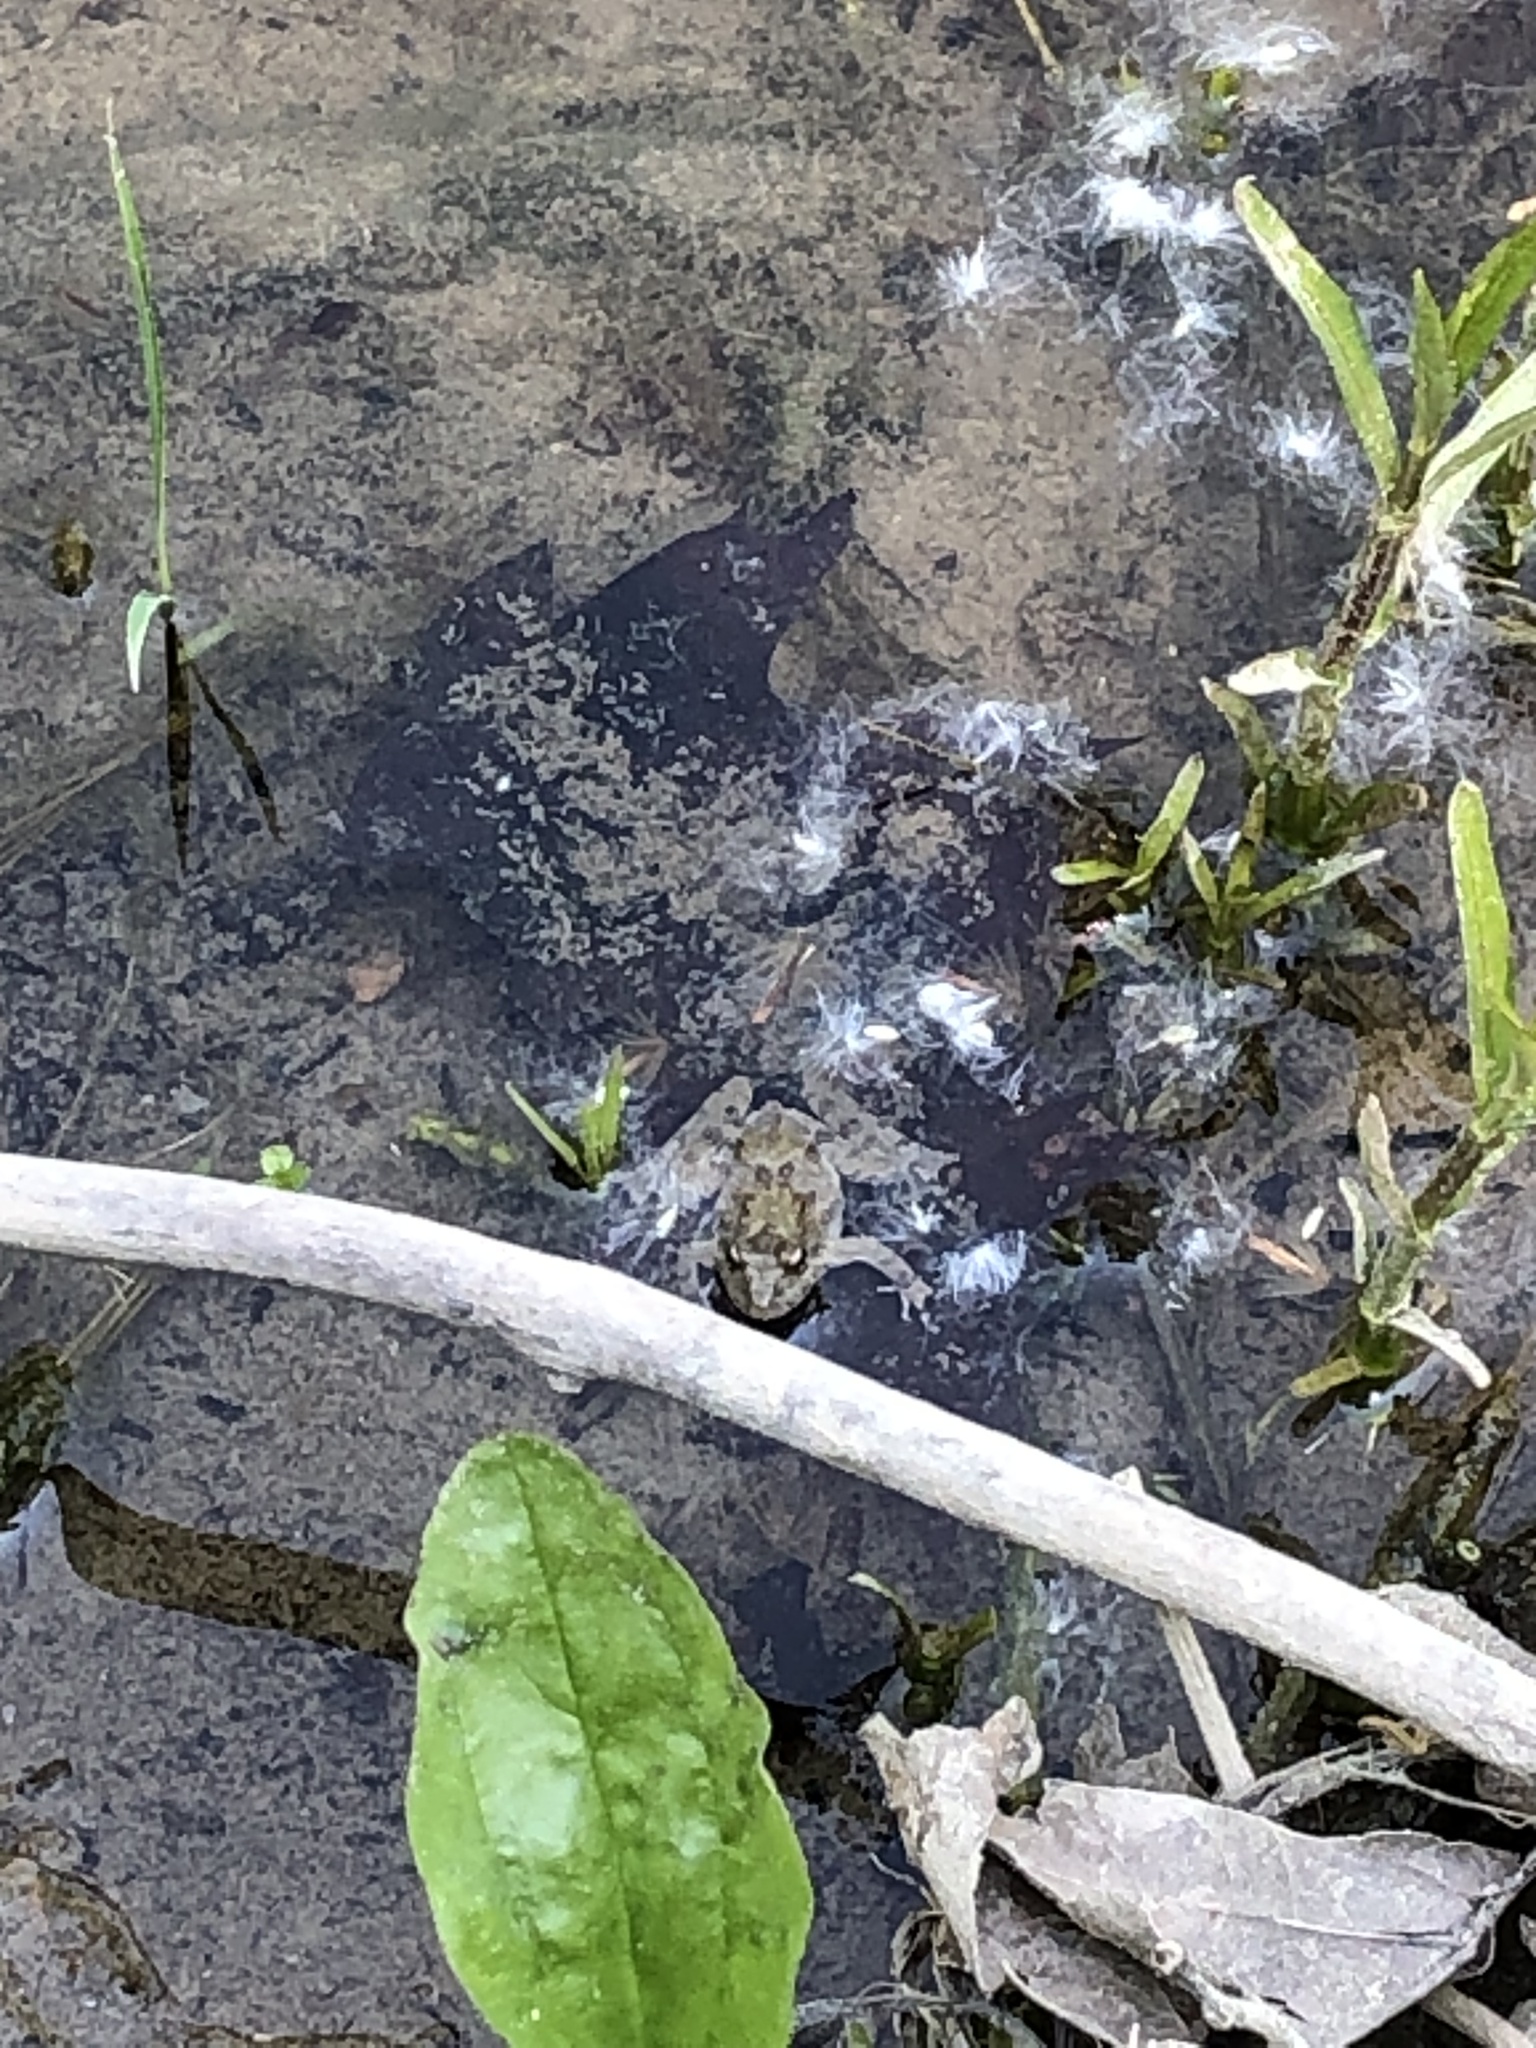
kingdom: Animalia
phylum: Chordata
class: Amphibia
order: Anura
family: Hylidae
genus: Acris
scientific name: Acris blanchardi
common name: Blanchard's cricket frog
